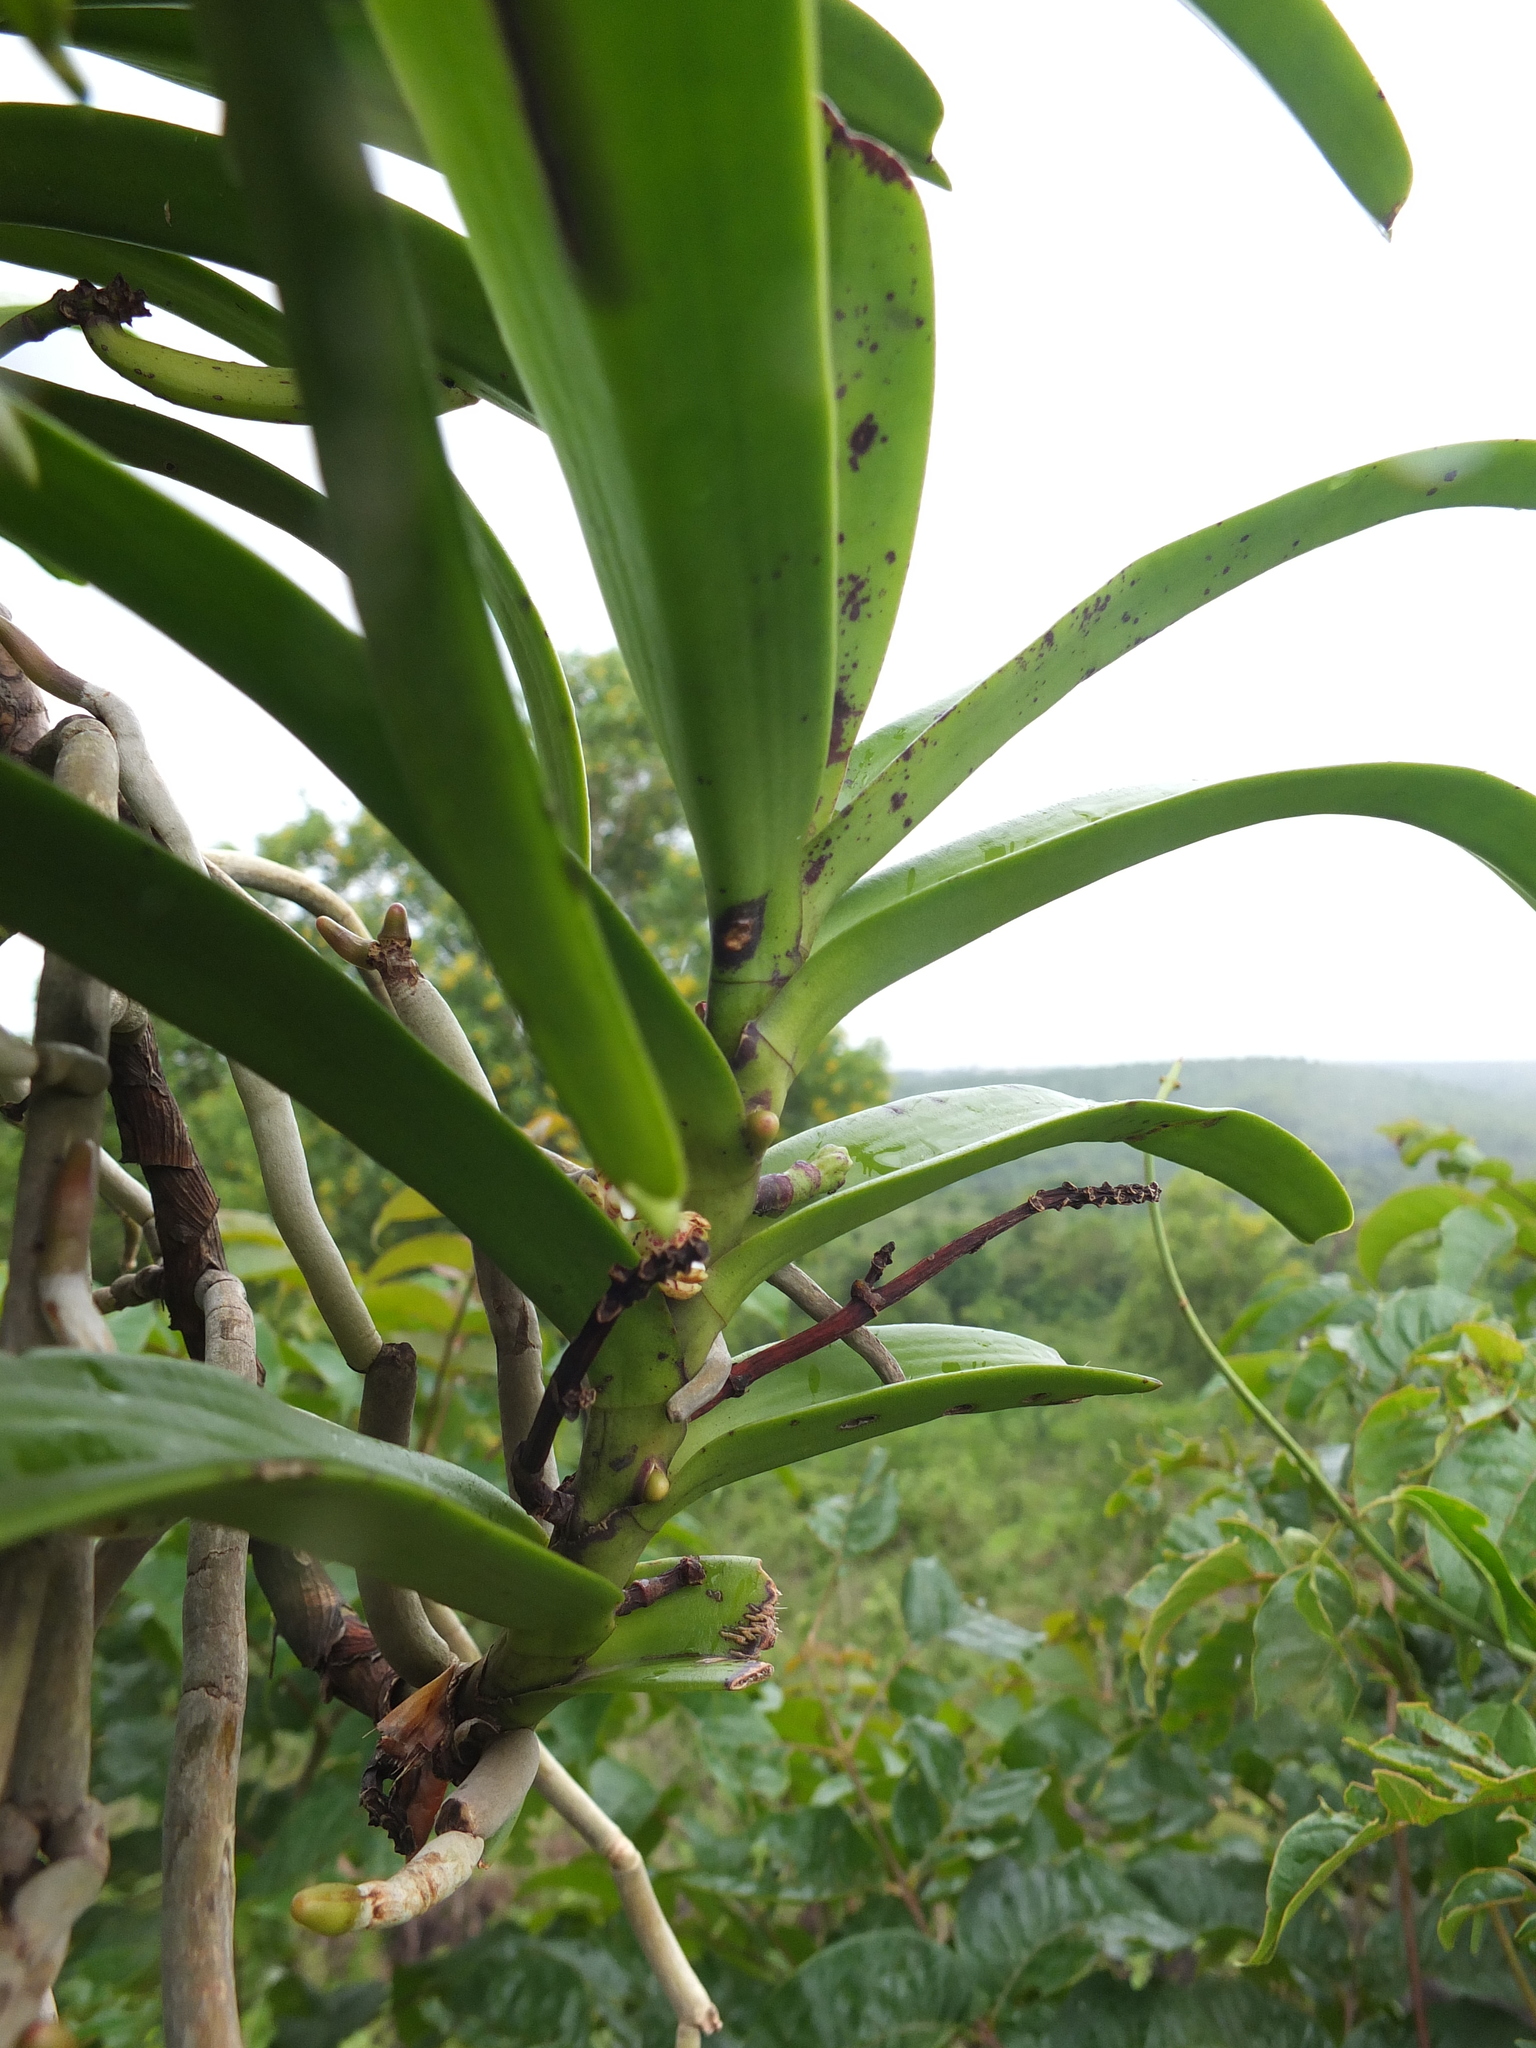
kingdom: Plantae
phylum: Tracheophyta
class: Liliopsida
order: Asparagales
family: Orchidaceae
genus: Acampe
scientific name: Acampe praemorsa
